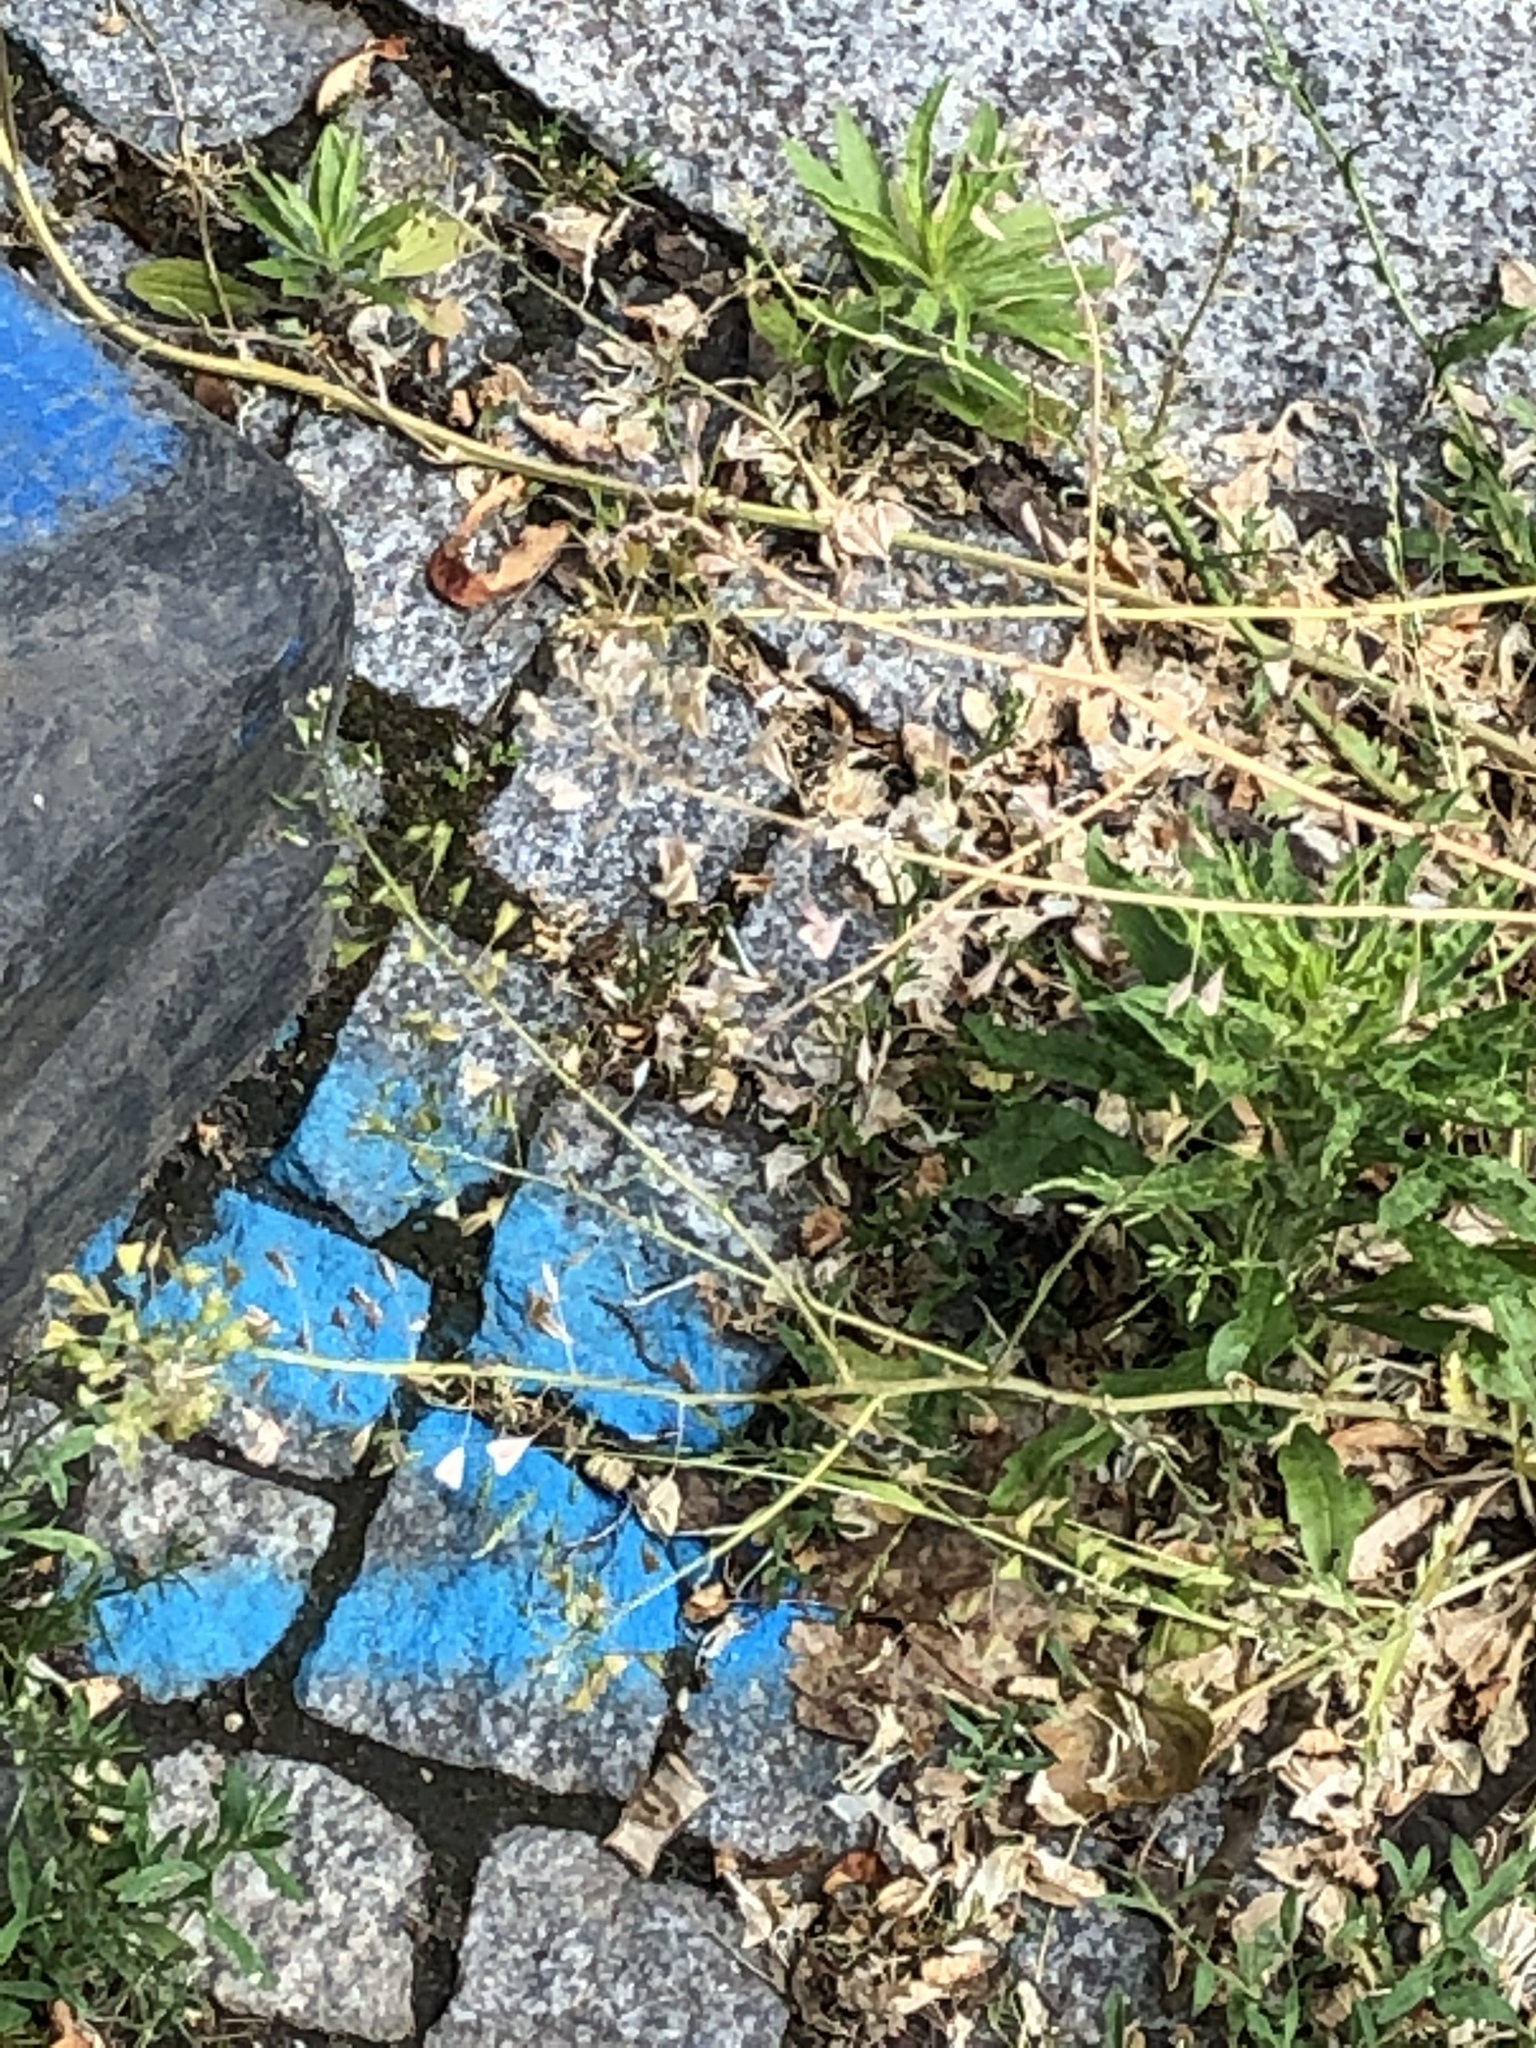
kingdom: Plantae
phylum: Tracheophyta
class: Magnoliopsida
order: Brassicales
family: Brassicaceae
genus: Capsella
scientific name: Capsella bursa-pastoris
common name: Shepherd's purse
